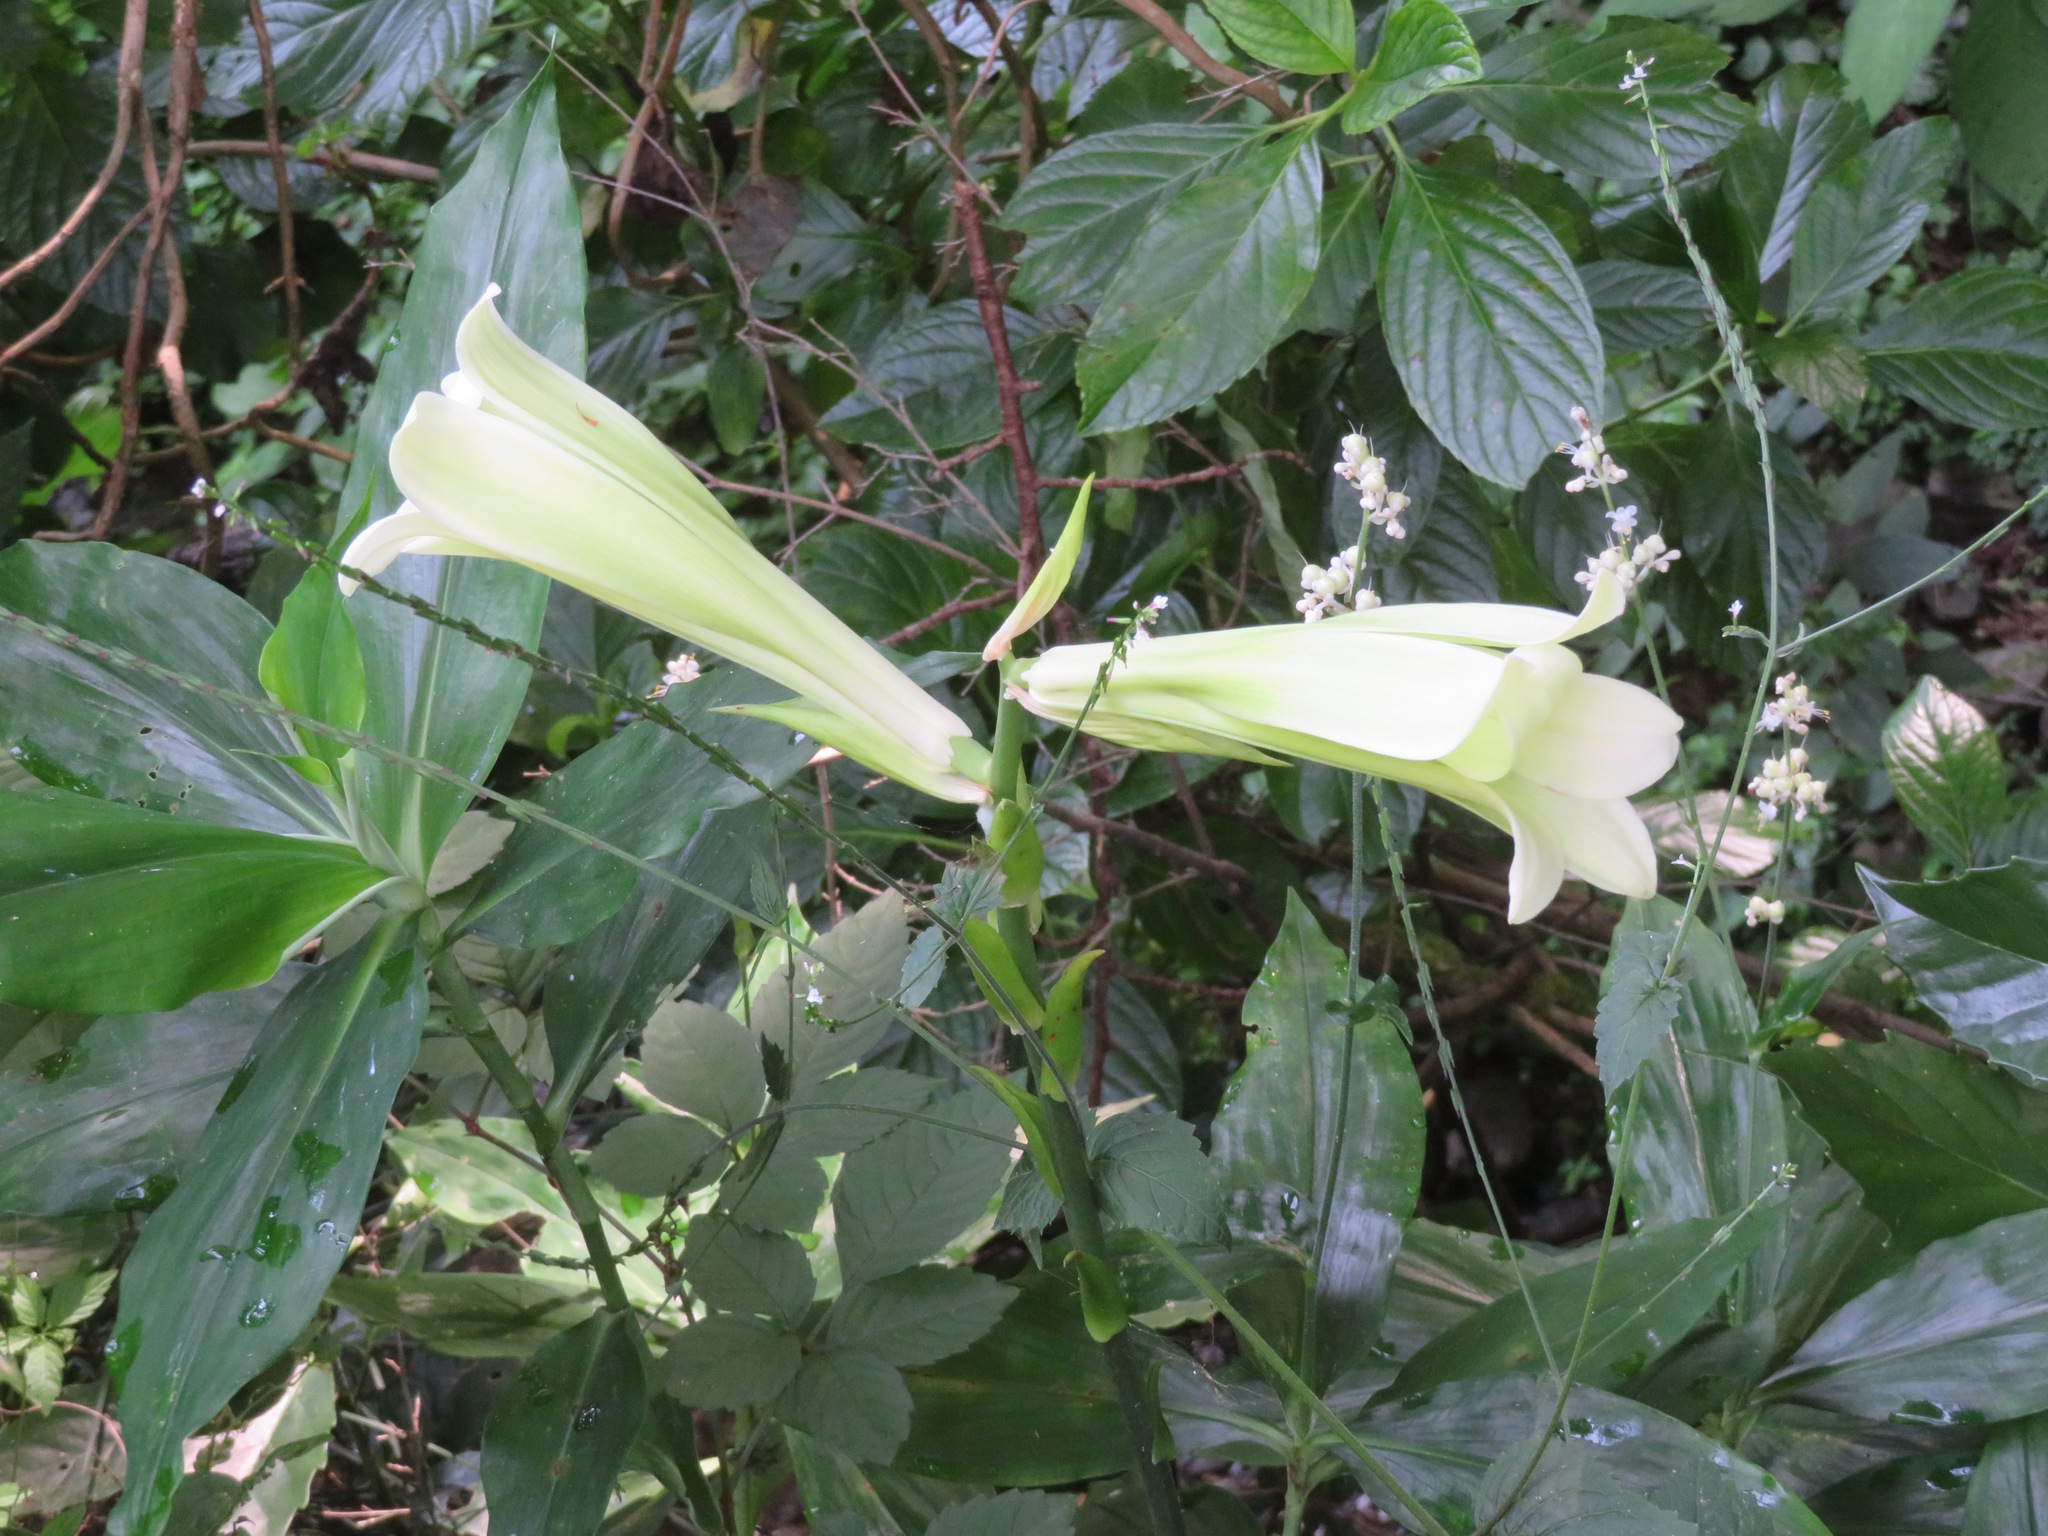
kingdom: Plantae
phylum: Tracheophyta
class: Liliopsida
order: Liliales
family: Liliaceae
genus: Cardiocrinum
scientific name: Cardiocrinum cordatum
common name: Lily
